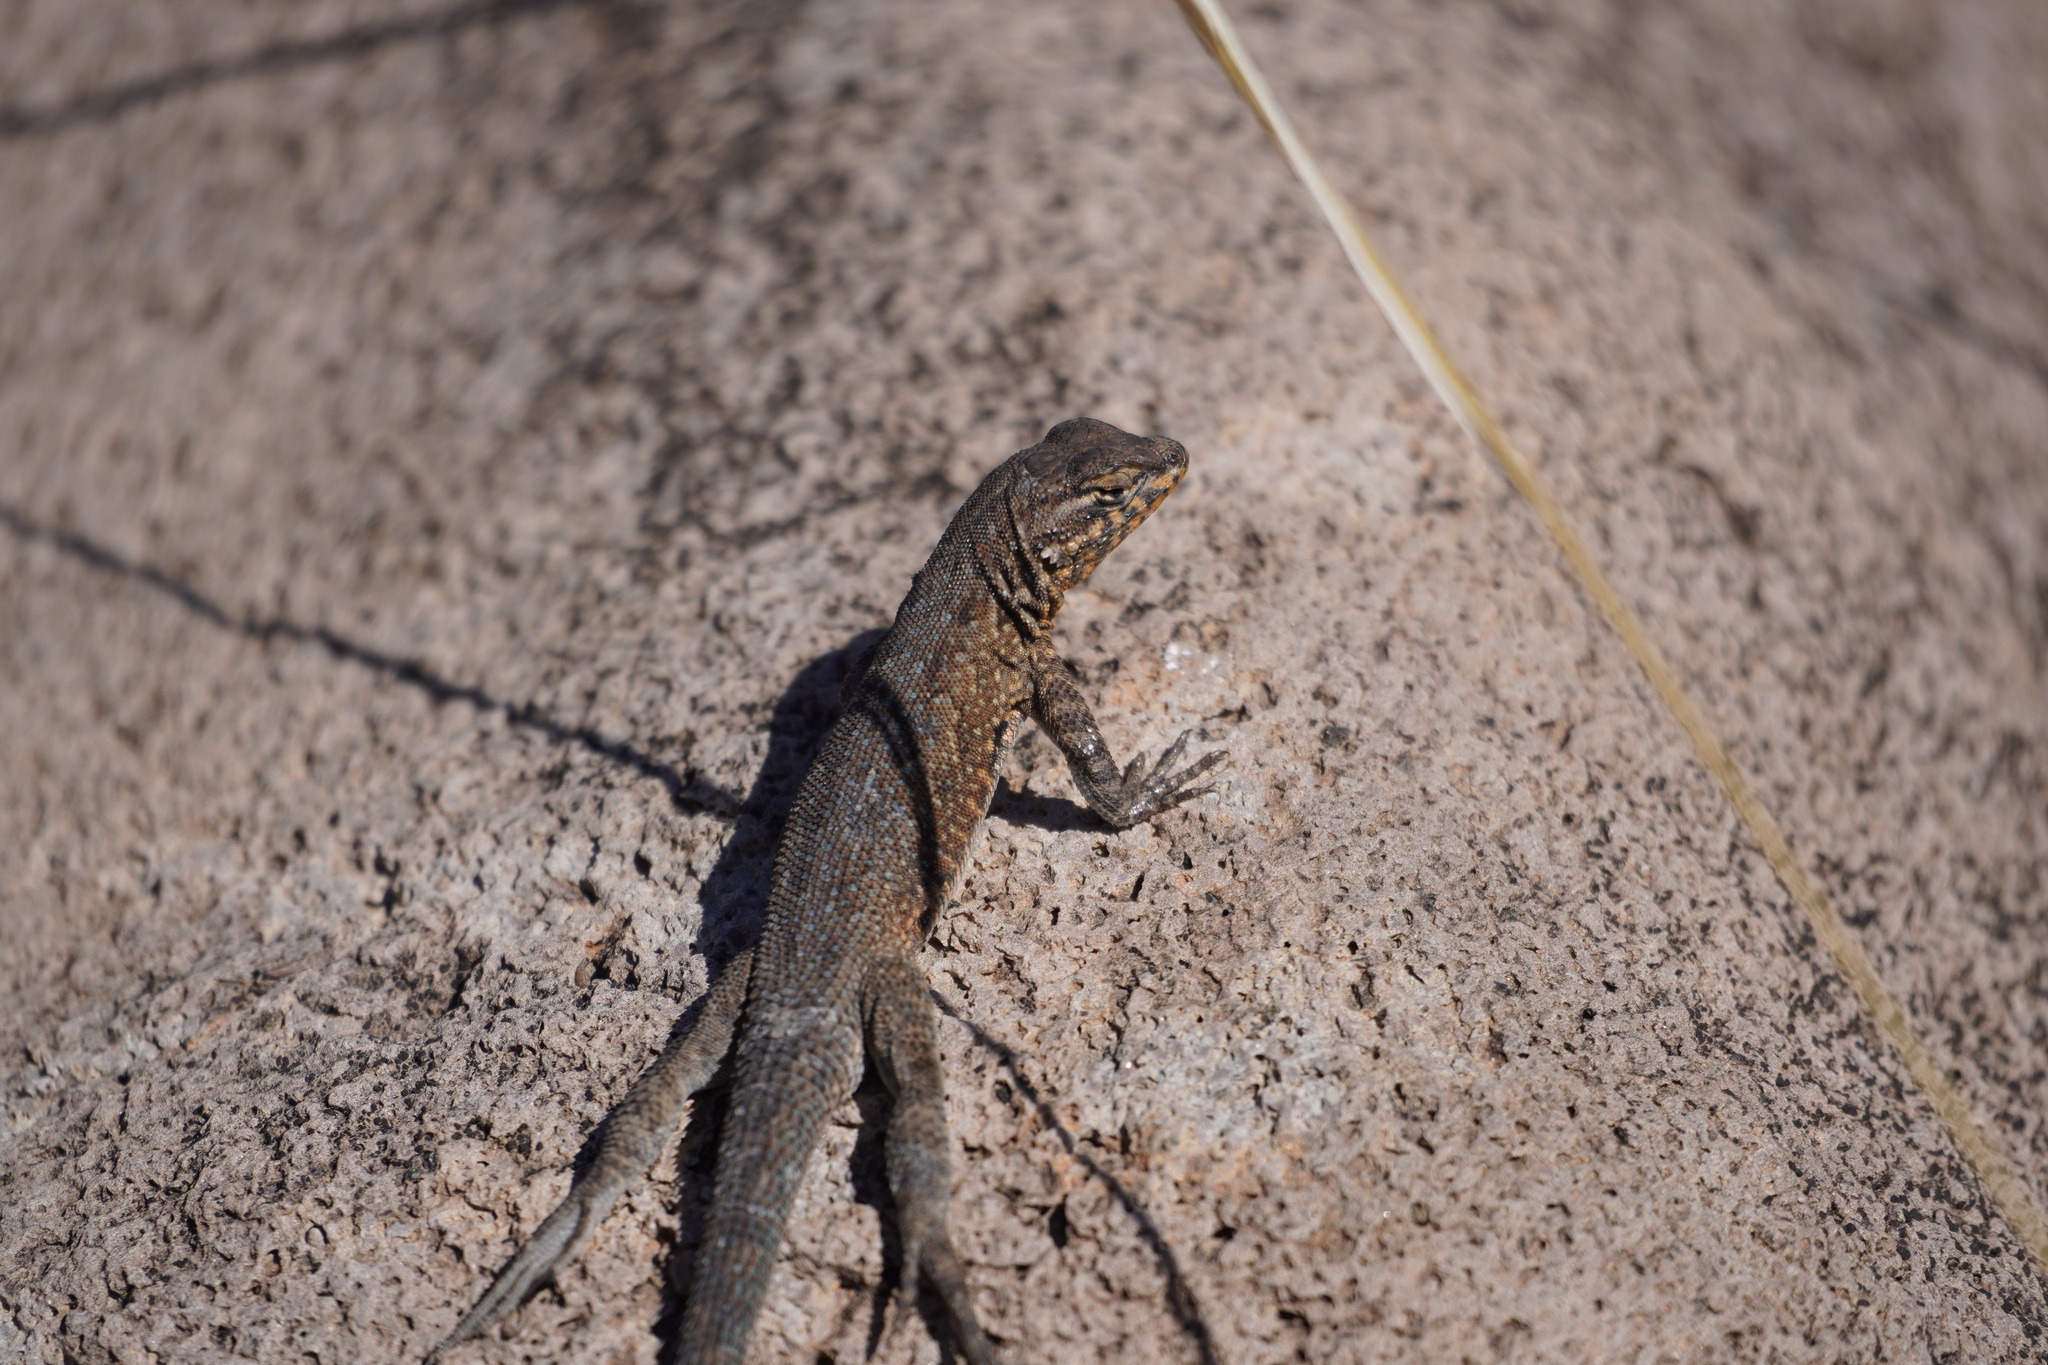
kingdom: Animalia
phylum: Chordata
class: Squamata
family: Phrynosomatidae
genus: Uta
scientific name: Uta stansburiana
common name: Side-blotched lizard
